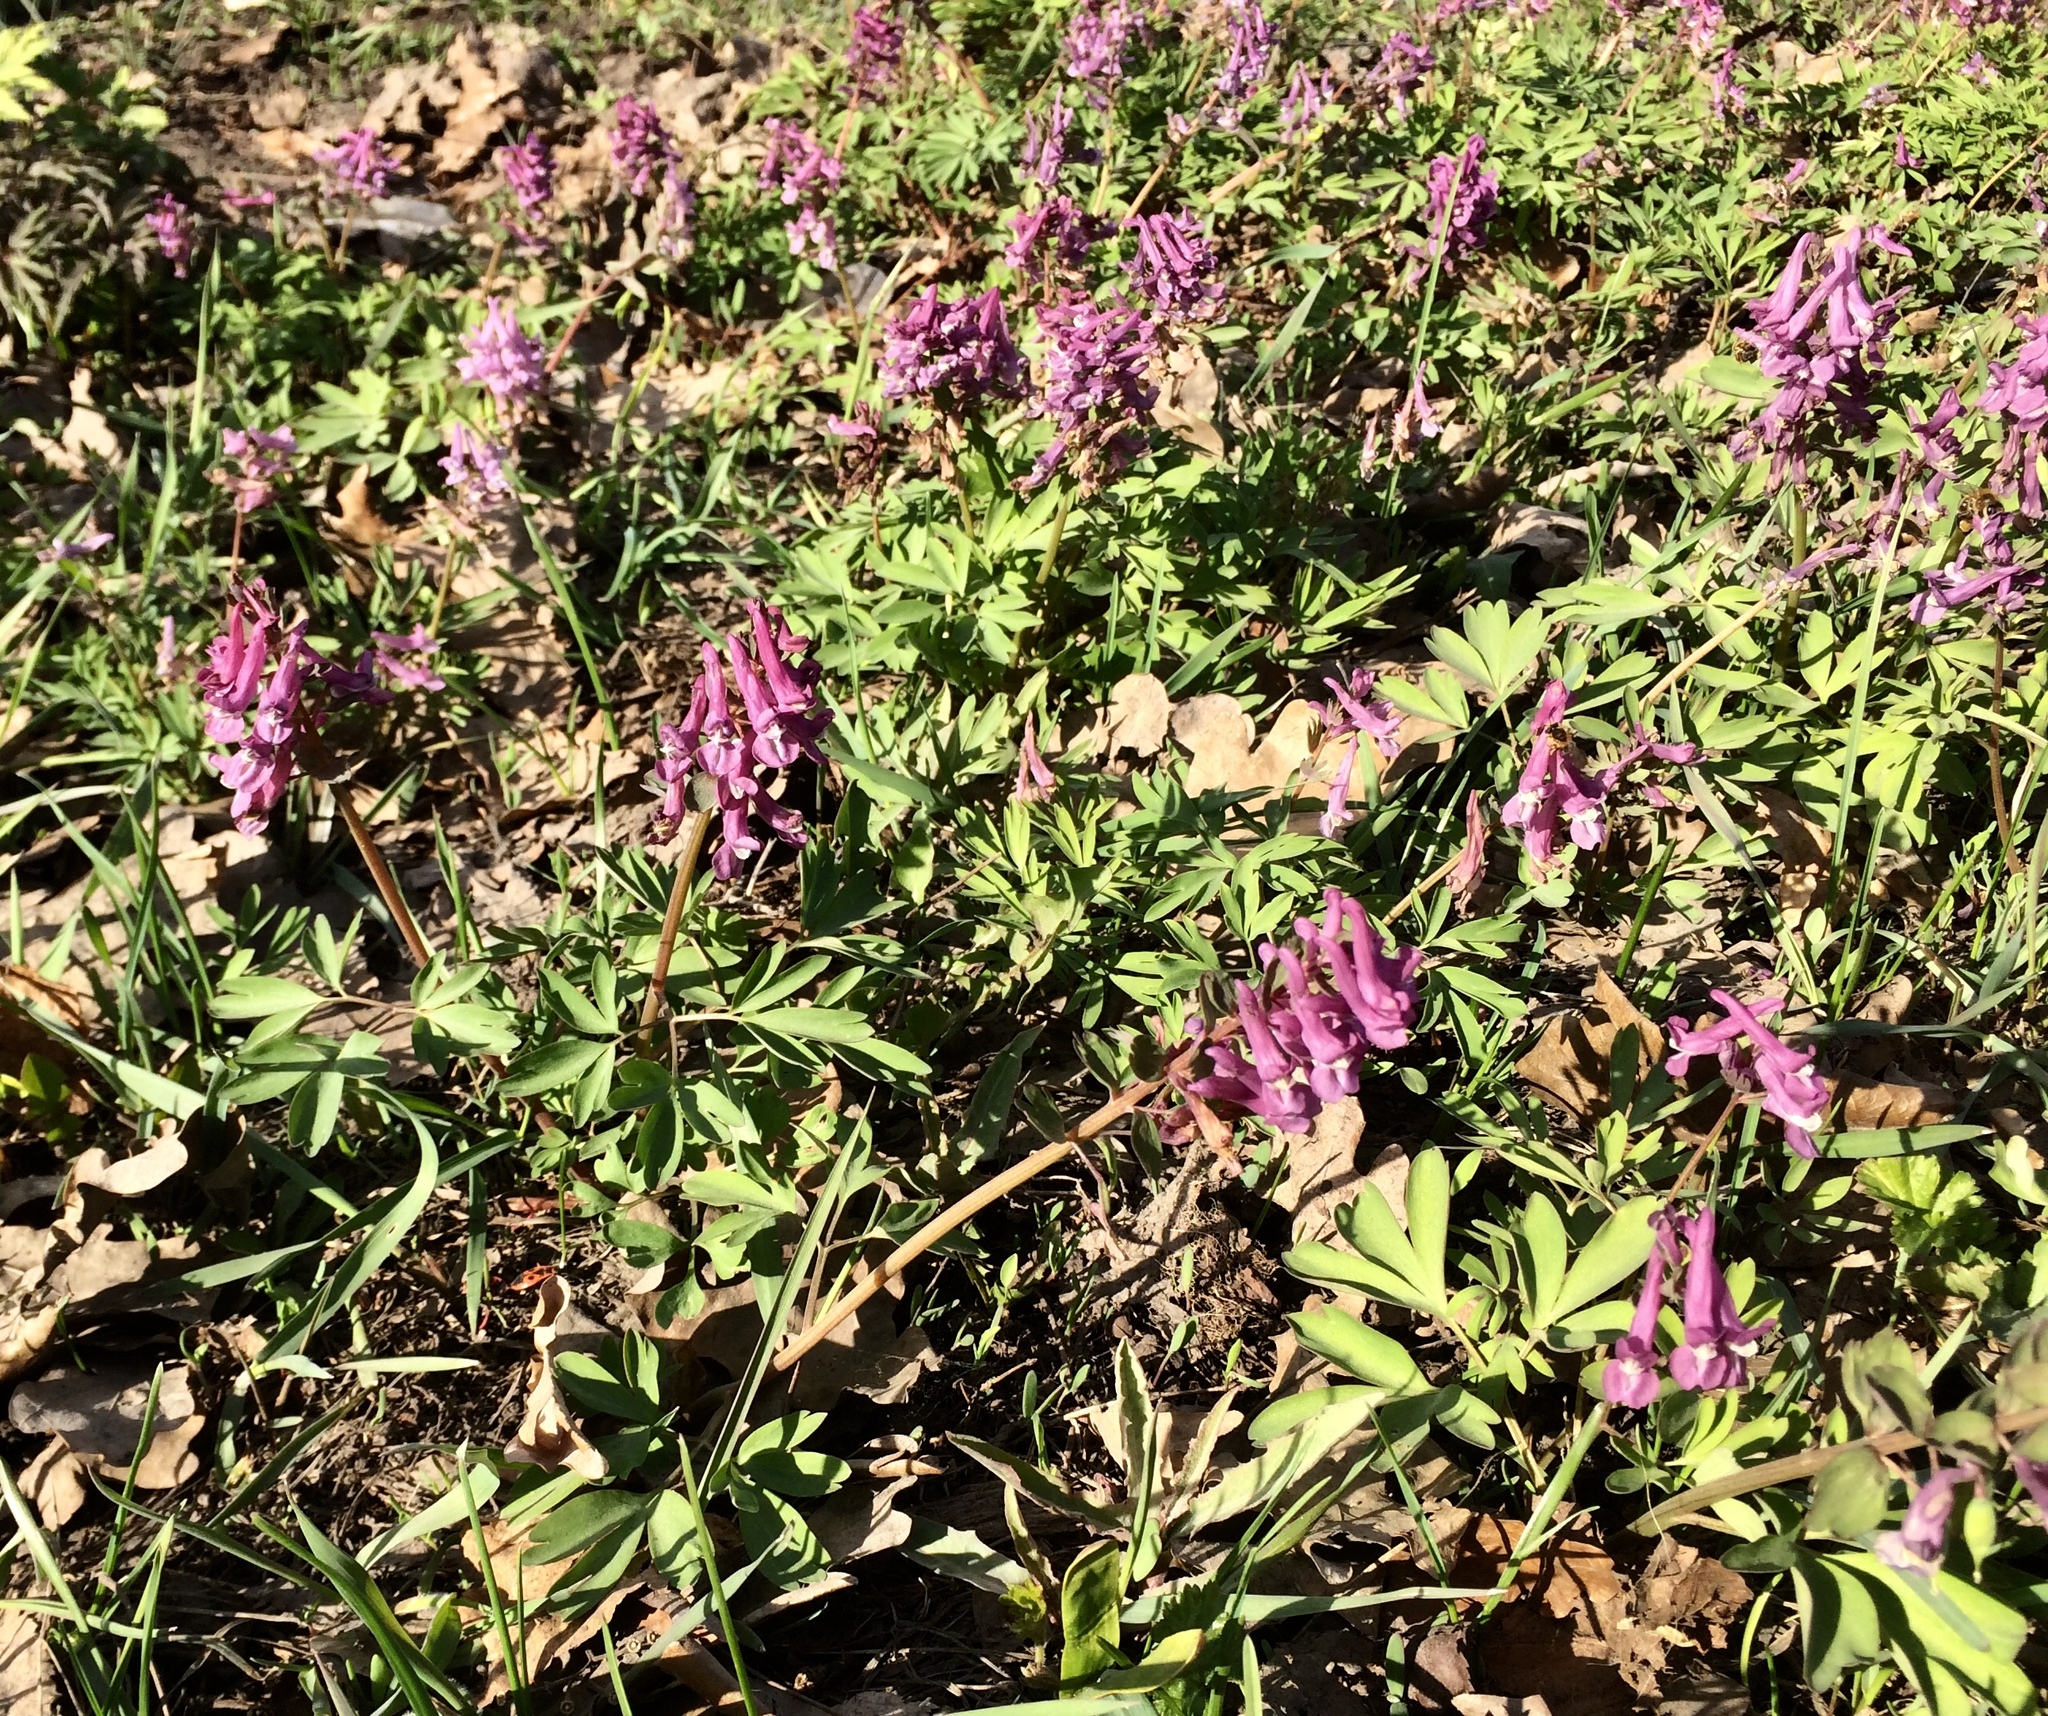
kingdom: Plantae
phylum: Tracheophyta
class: Magnoliopsida
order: Ranunculales
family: Papaveraceae
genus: Corydalis
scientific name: Corydalis solida
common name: Bird-in-a-bush
